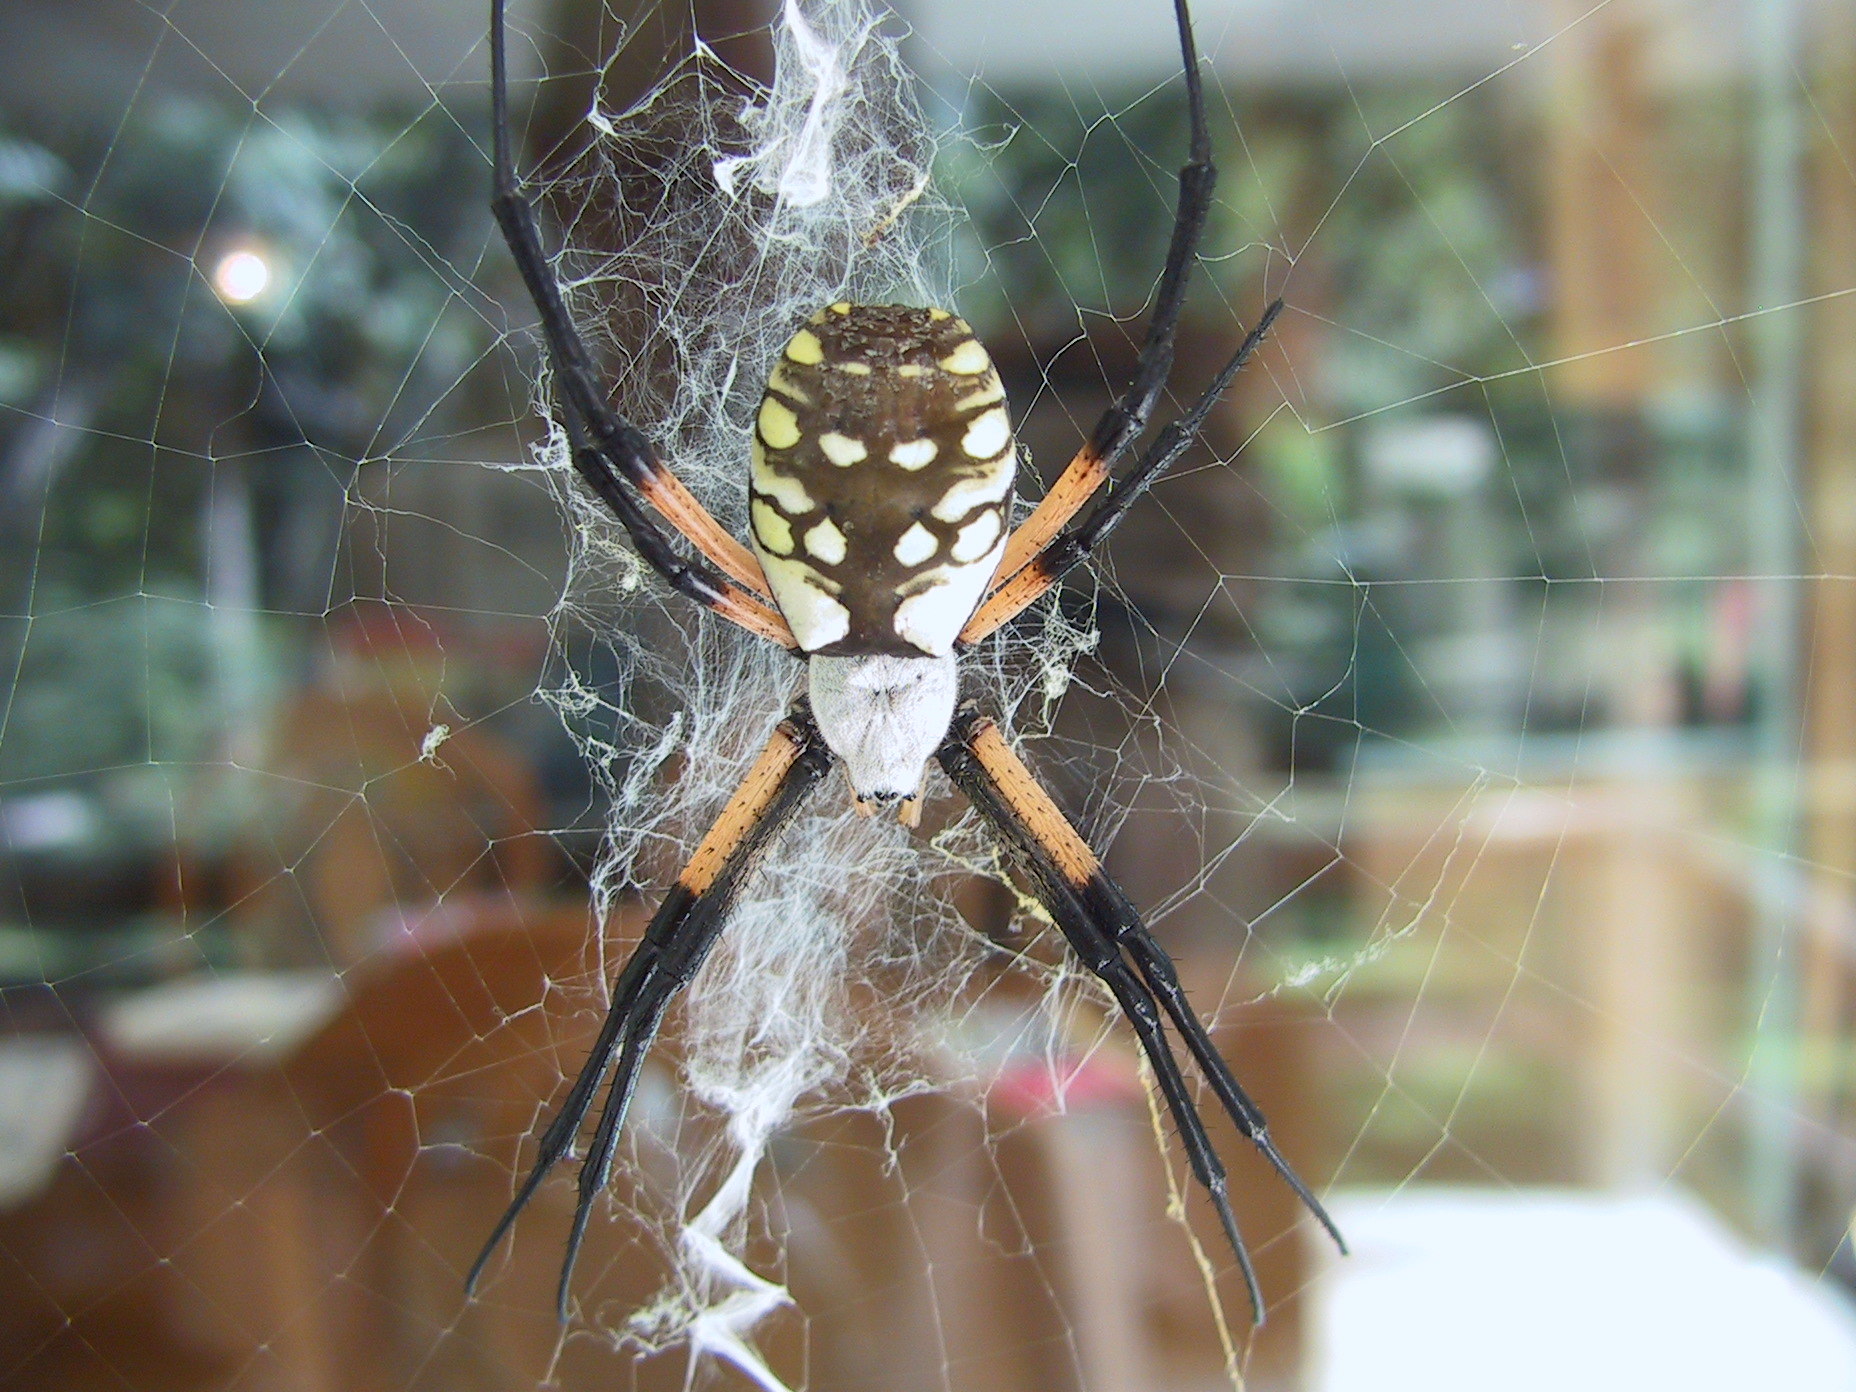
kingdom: Animalia
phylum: Arthropoda
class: Arachnida
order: Araneae
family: Araneidae
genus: Argiope
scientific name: Argiope aurantia
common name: Orb weavers
